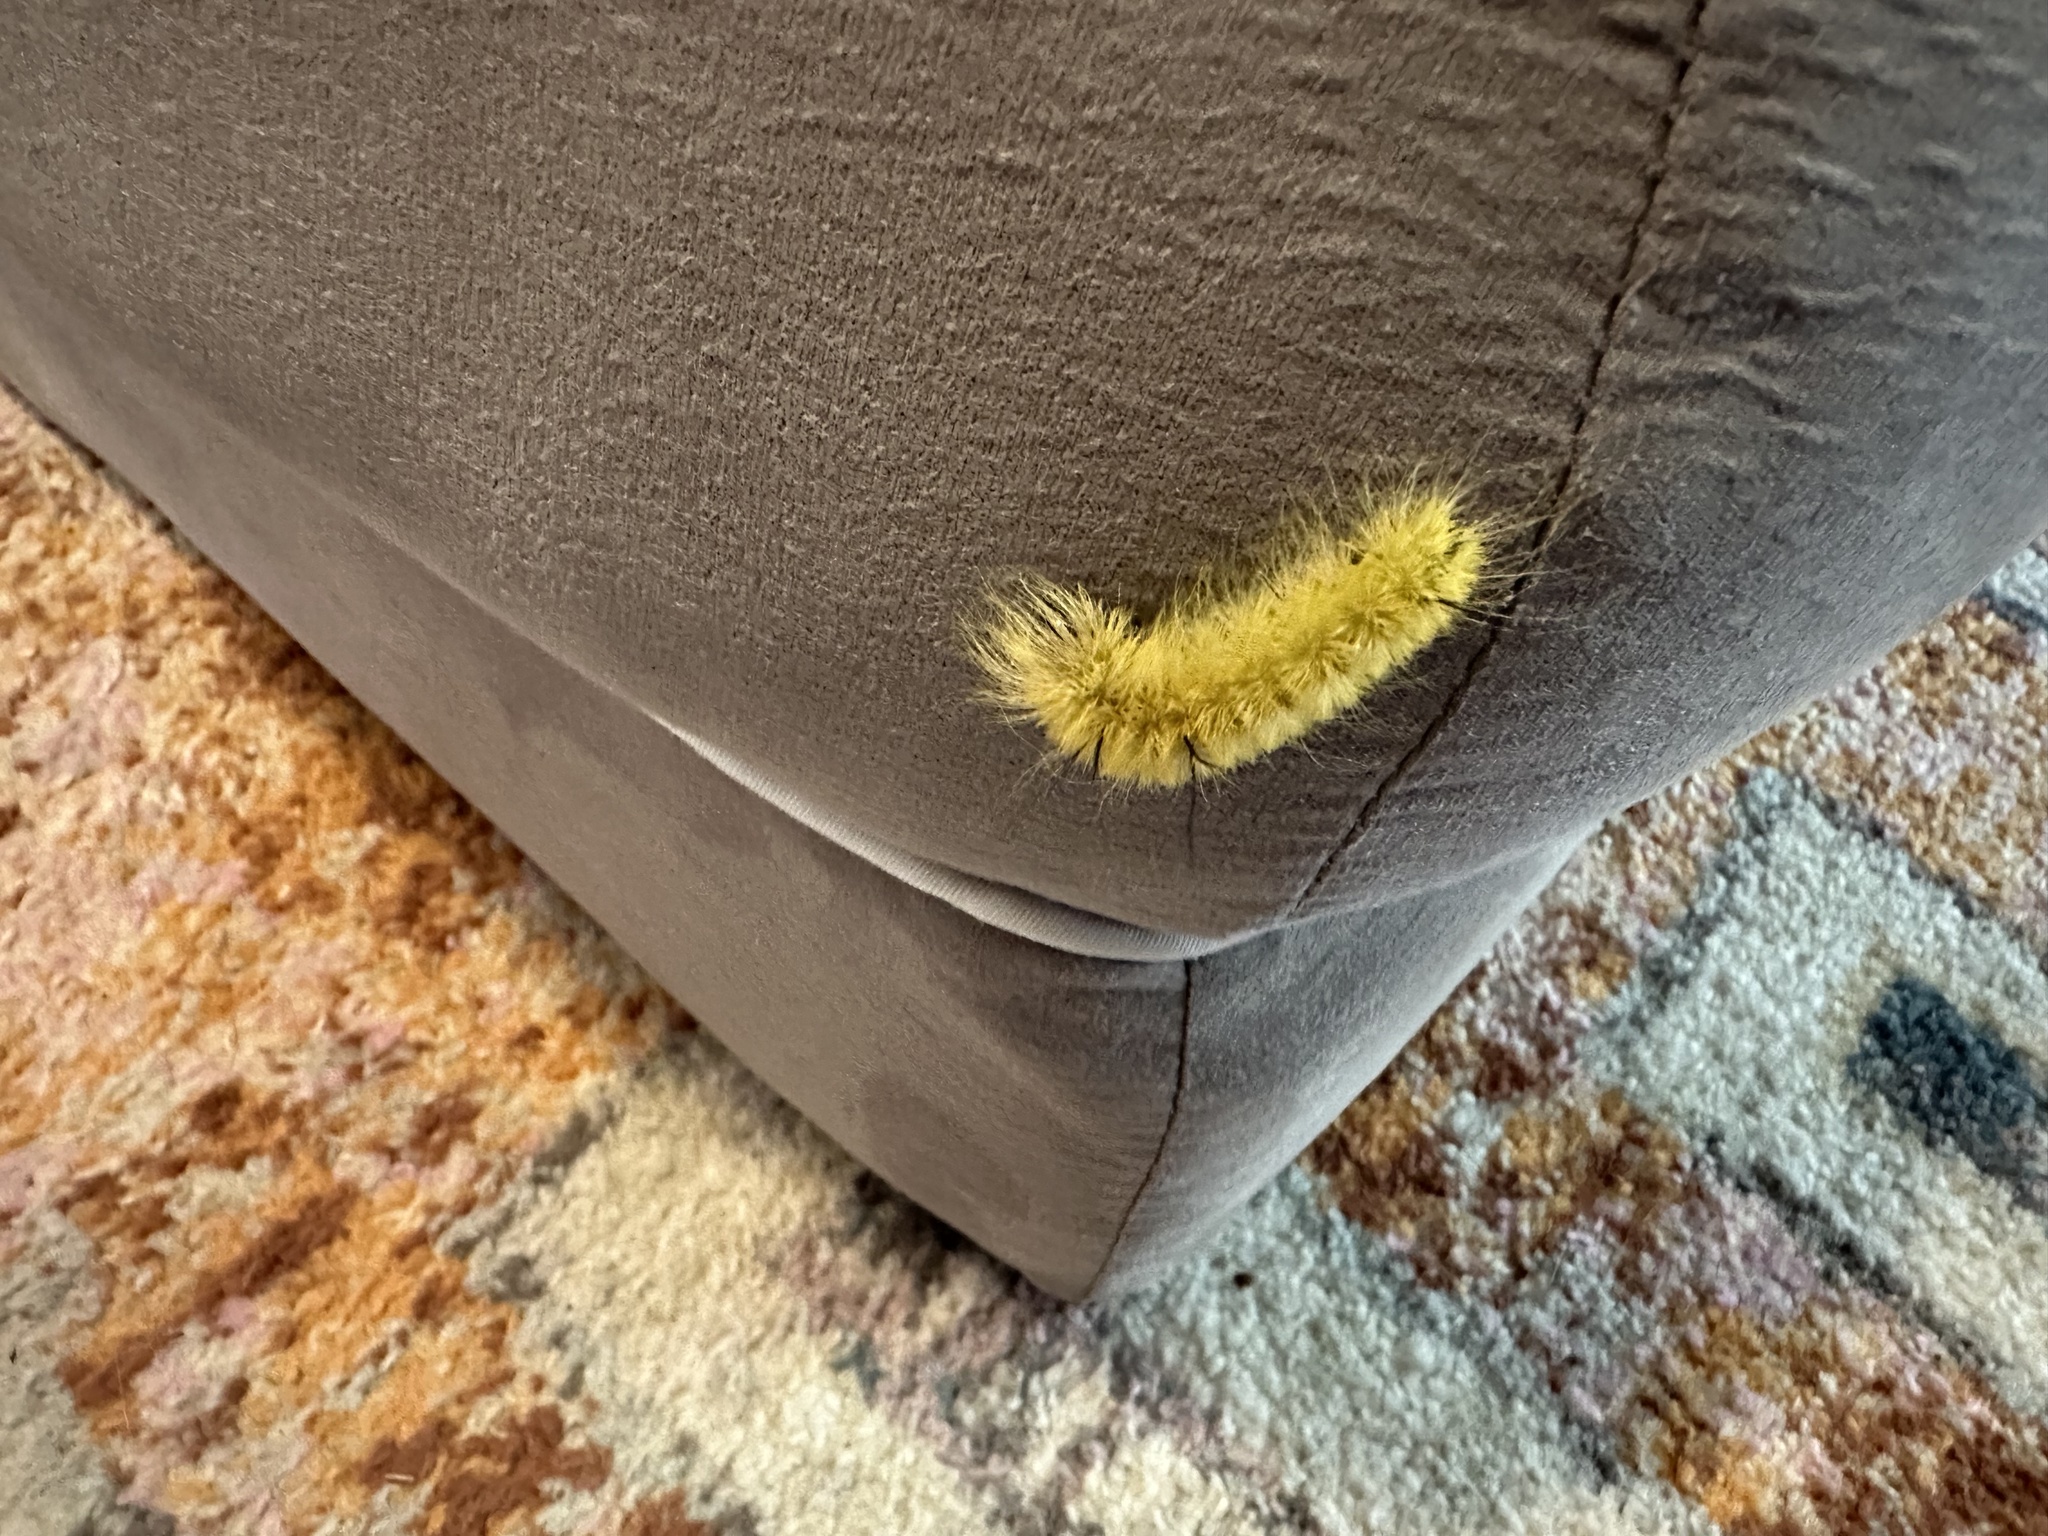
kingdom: Animalia
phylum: Arthropoda
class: Insecta
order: Lepidoptera
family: Noctuidae
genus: Acronicta
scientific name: Acronicta americana
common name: American dagger
